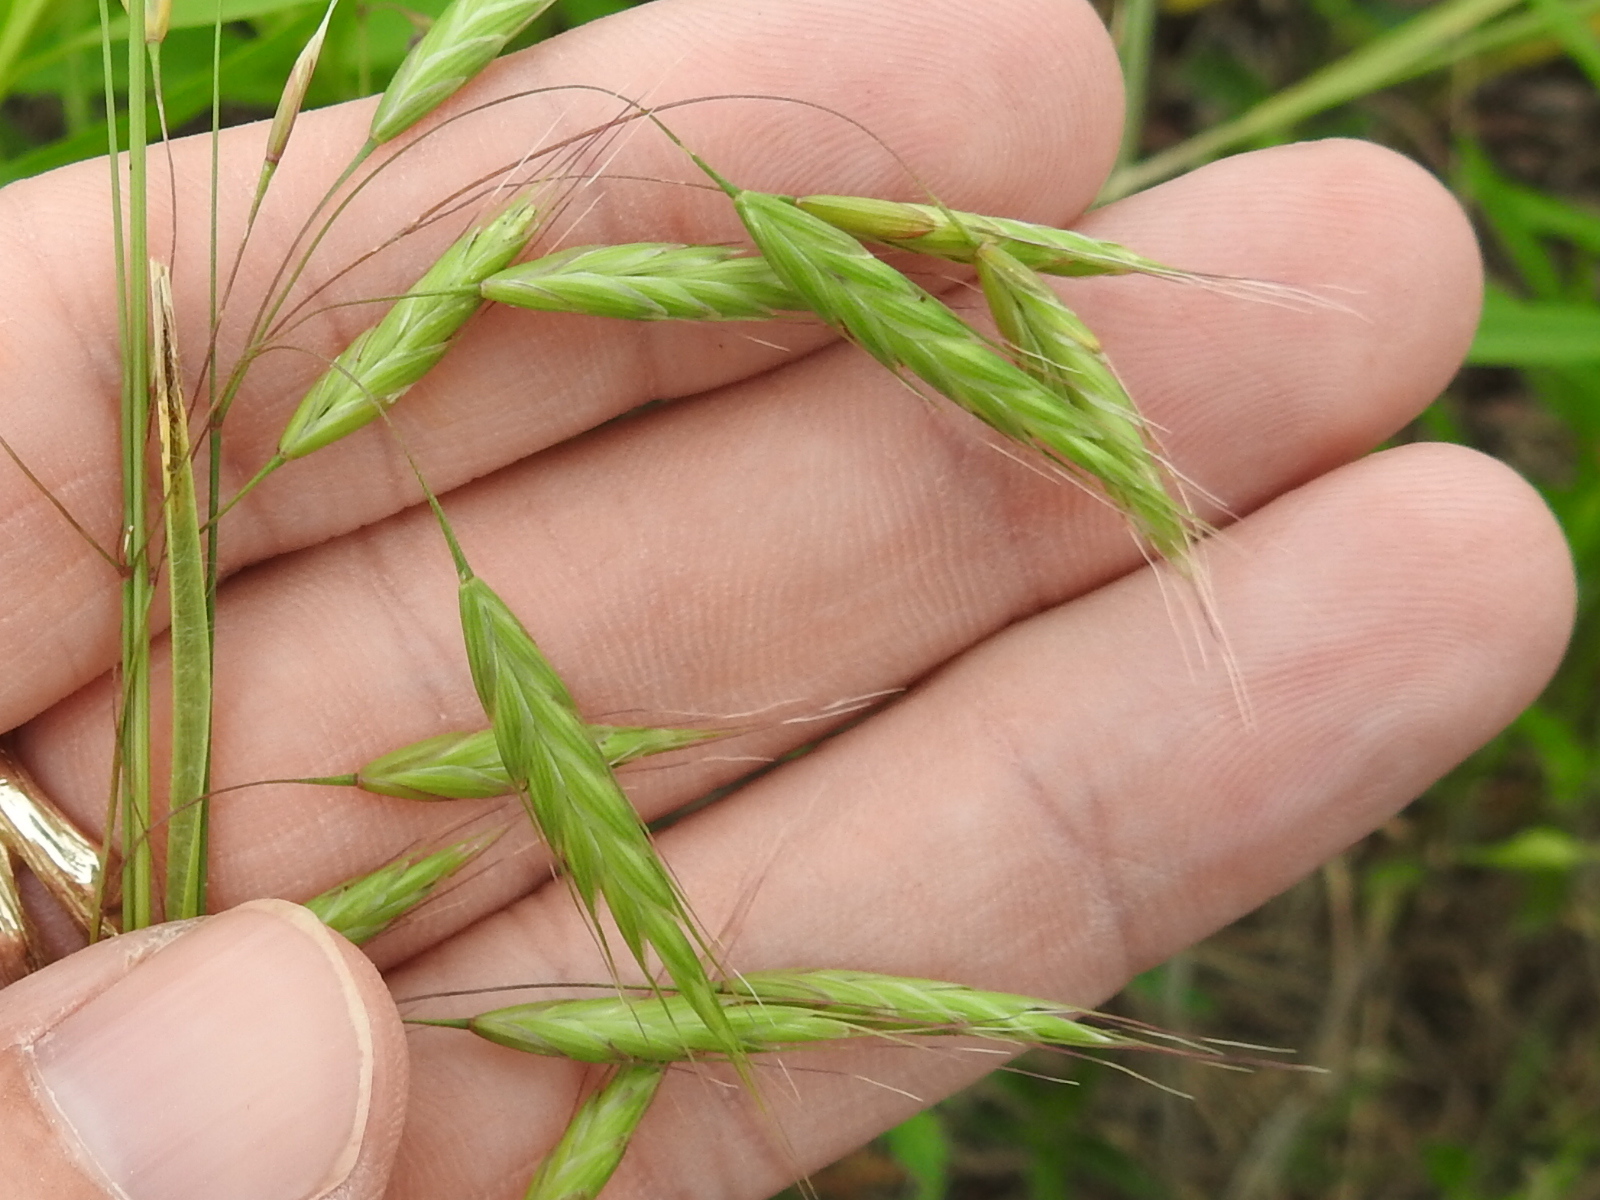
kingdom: Plantae
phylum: Tracheophyta
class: Liliopsida
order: Poales
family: Poaceae
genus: Bromus
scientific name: Bromus japonicus
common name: Japanese brome
